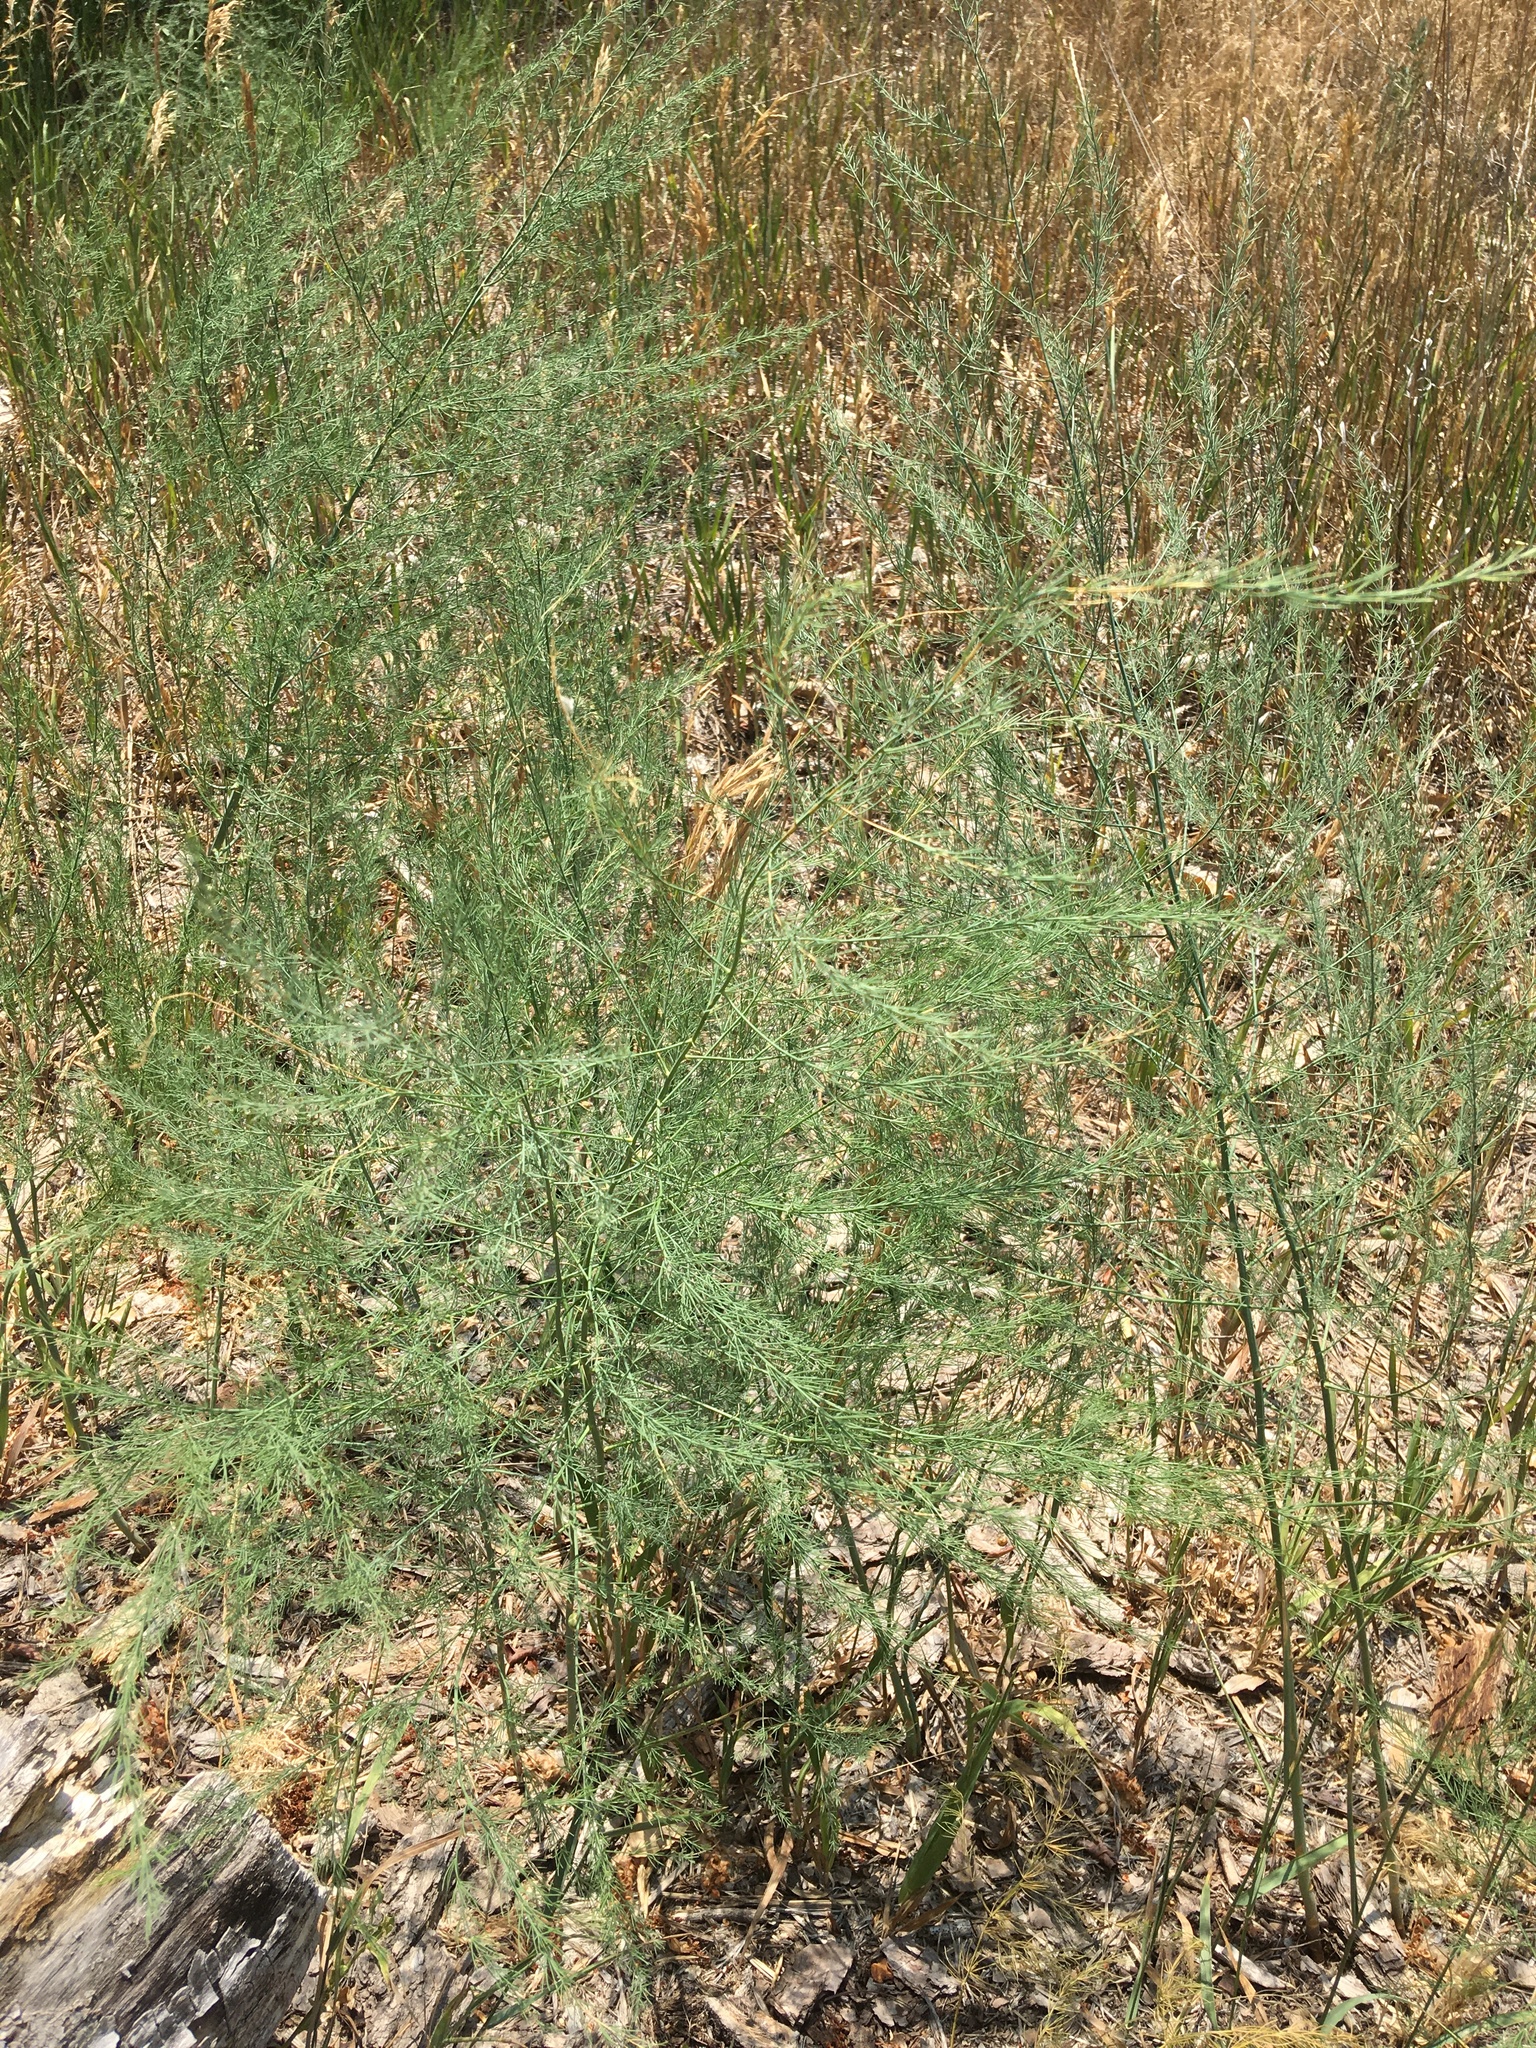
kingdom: Plantae
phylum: Tracheophyta
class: Liliopsida
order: Asparagales
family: Asparagaceae
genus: Asparagus
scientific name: Asparagus officinalis
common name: Garden asparagus
